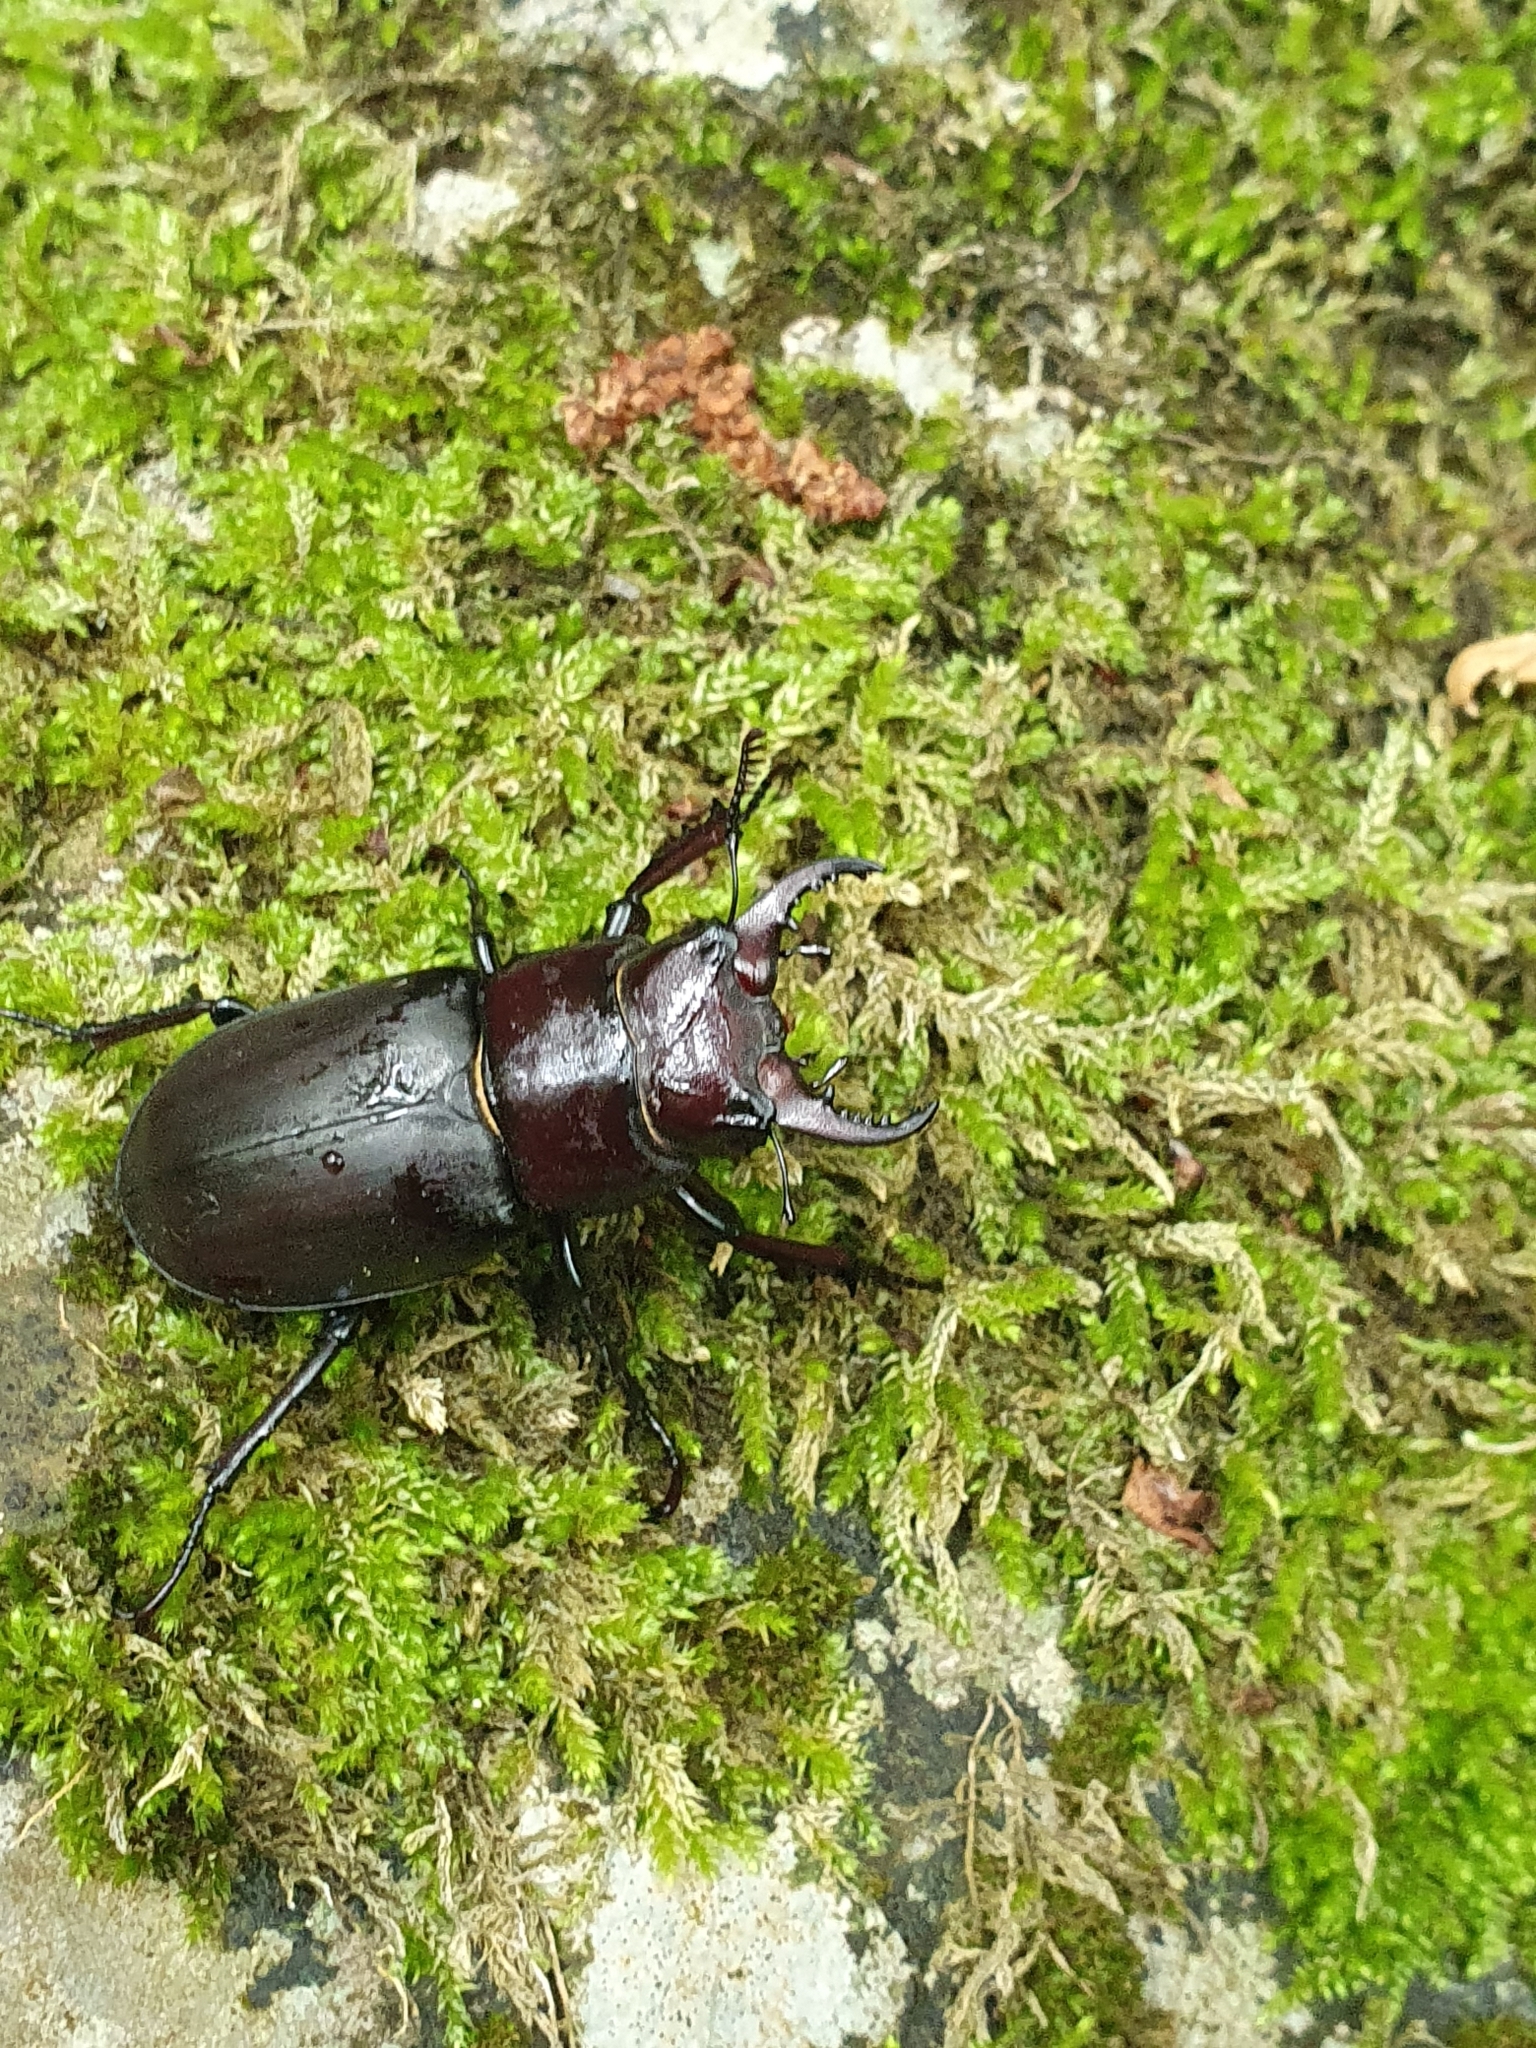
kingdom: Animalia
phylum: Arthropoda
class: Insecta
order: Coleoptera
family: Lucanidae
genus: Lucanus
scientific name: Lucanus tetraodon
